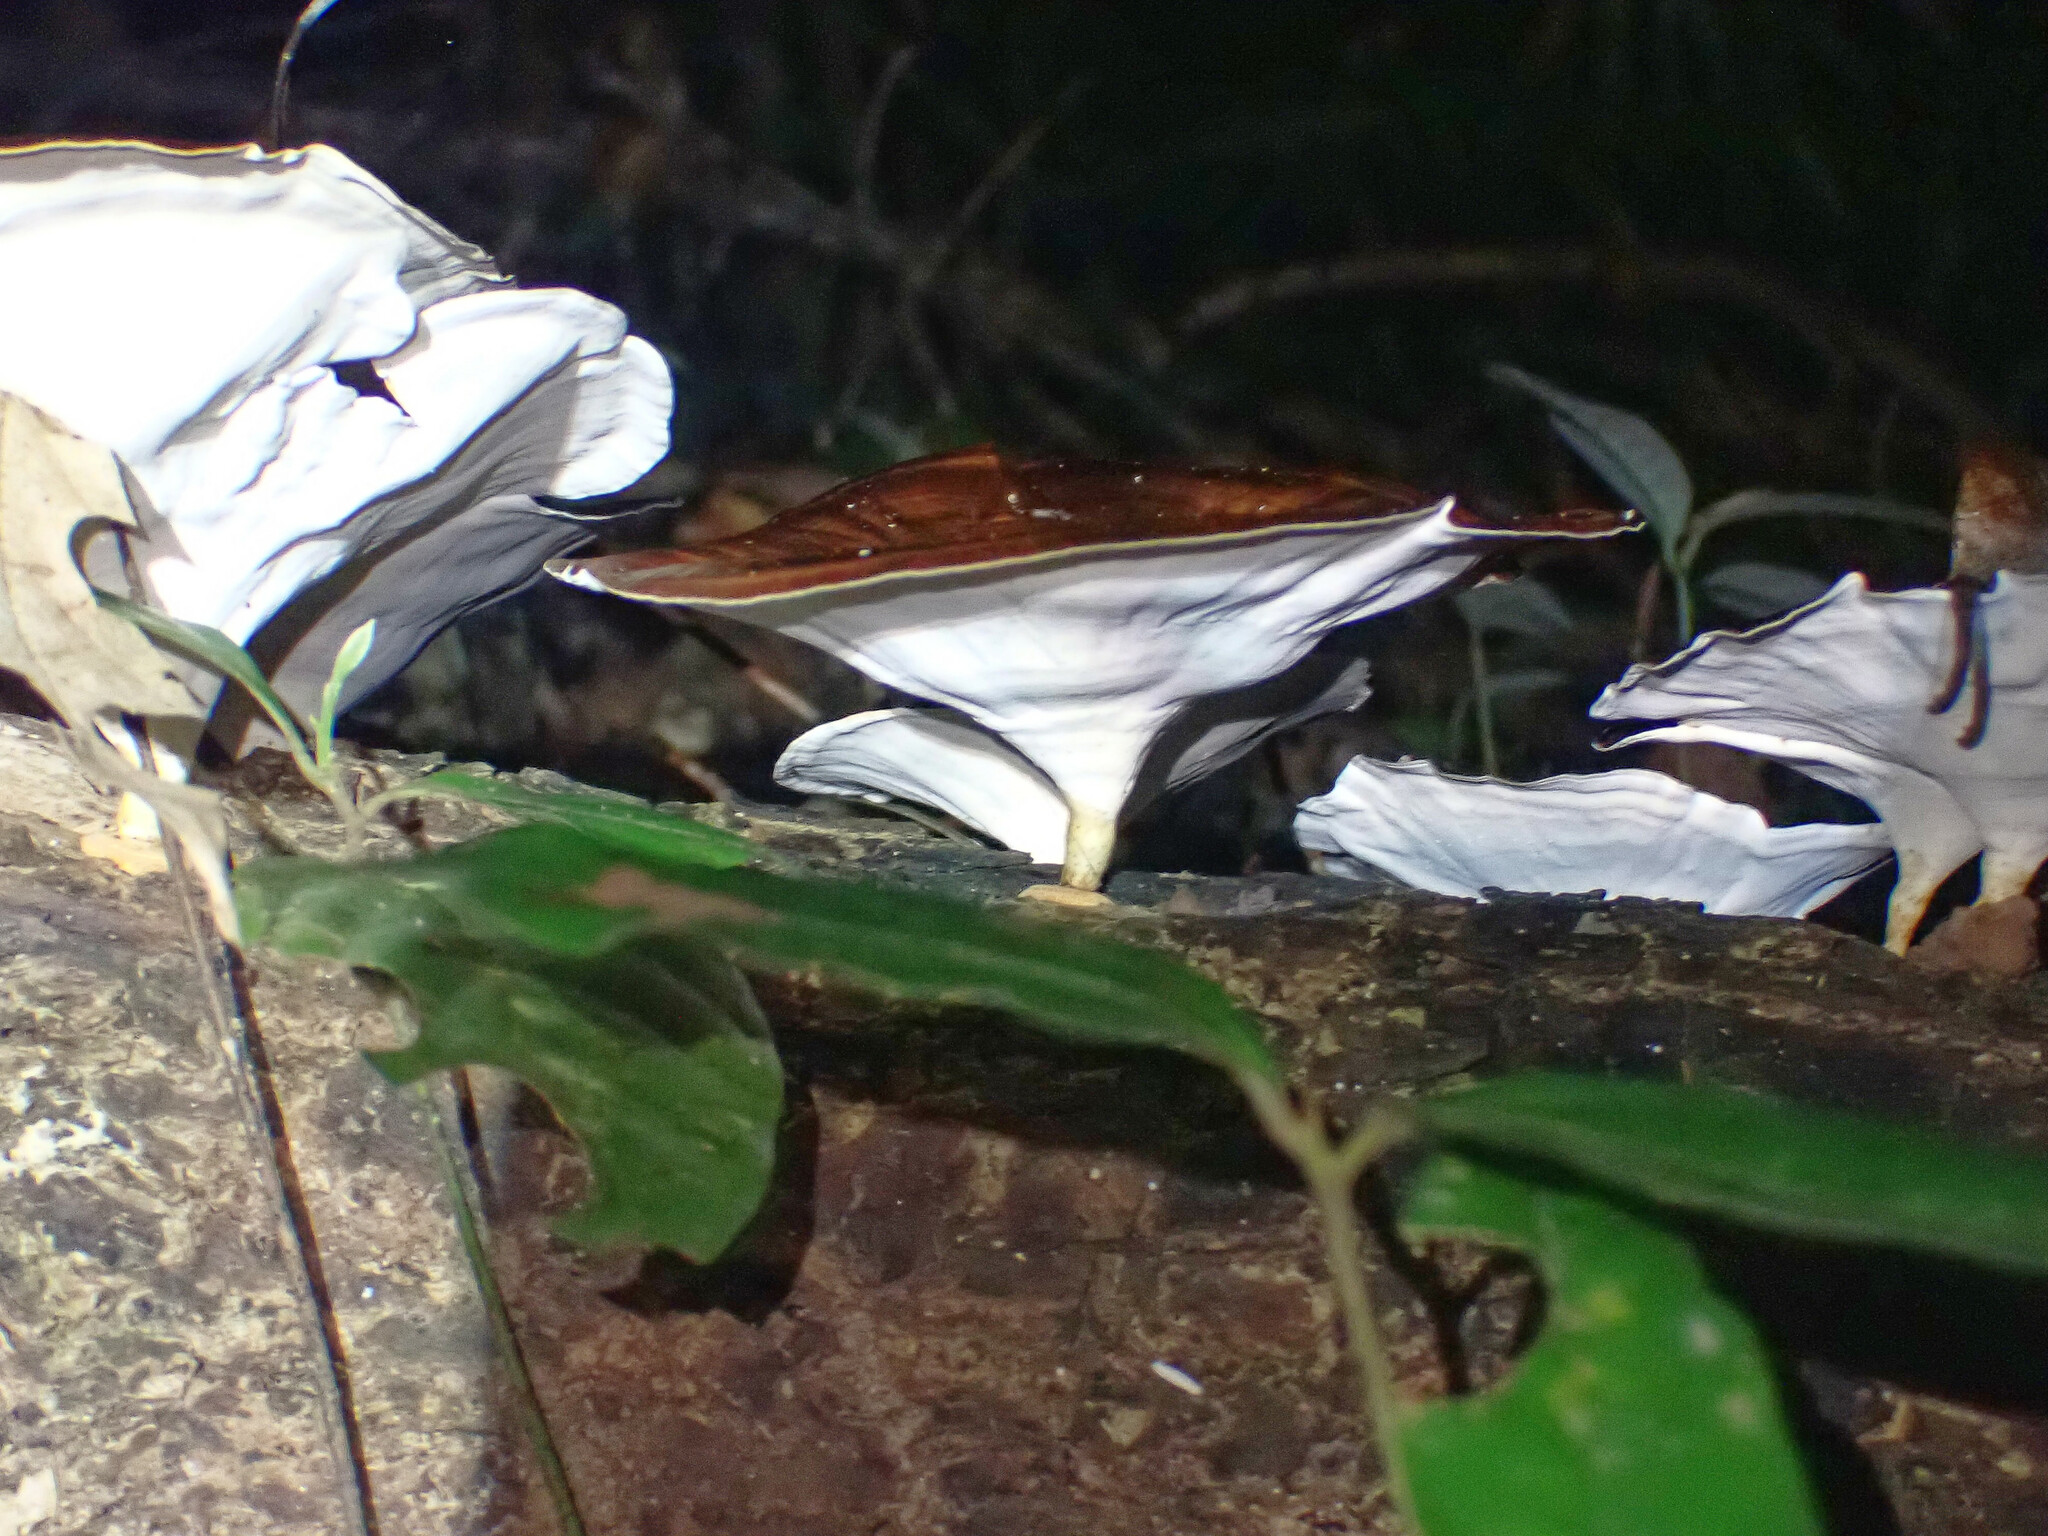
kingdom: Fungi
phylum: Basidiomycota
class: Agaricomycetes
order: Polyporales
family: Polyporaceae
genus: Microporus
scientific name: Microporus xanthopus
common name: Yellow-stemmed micropore
